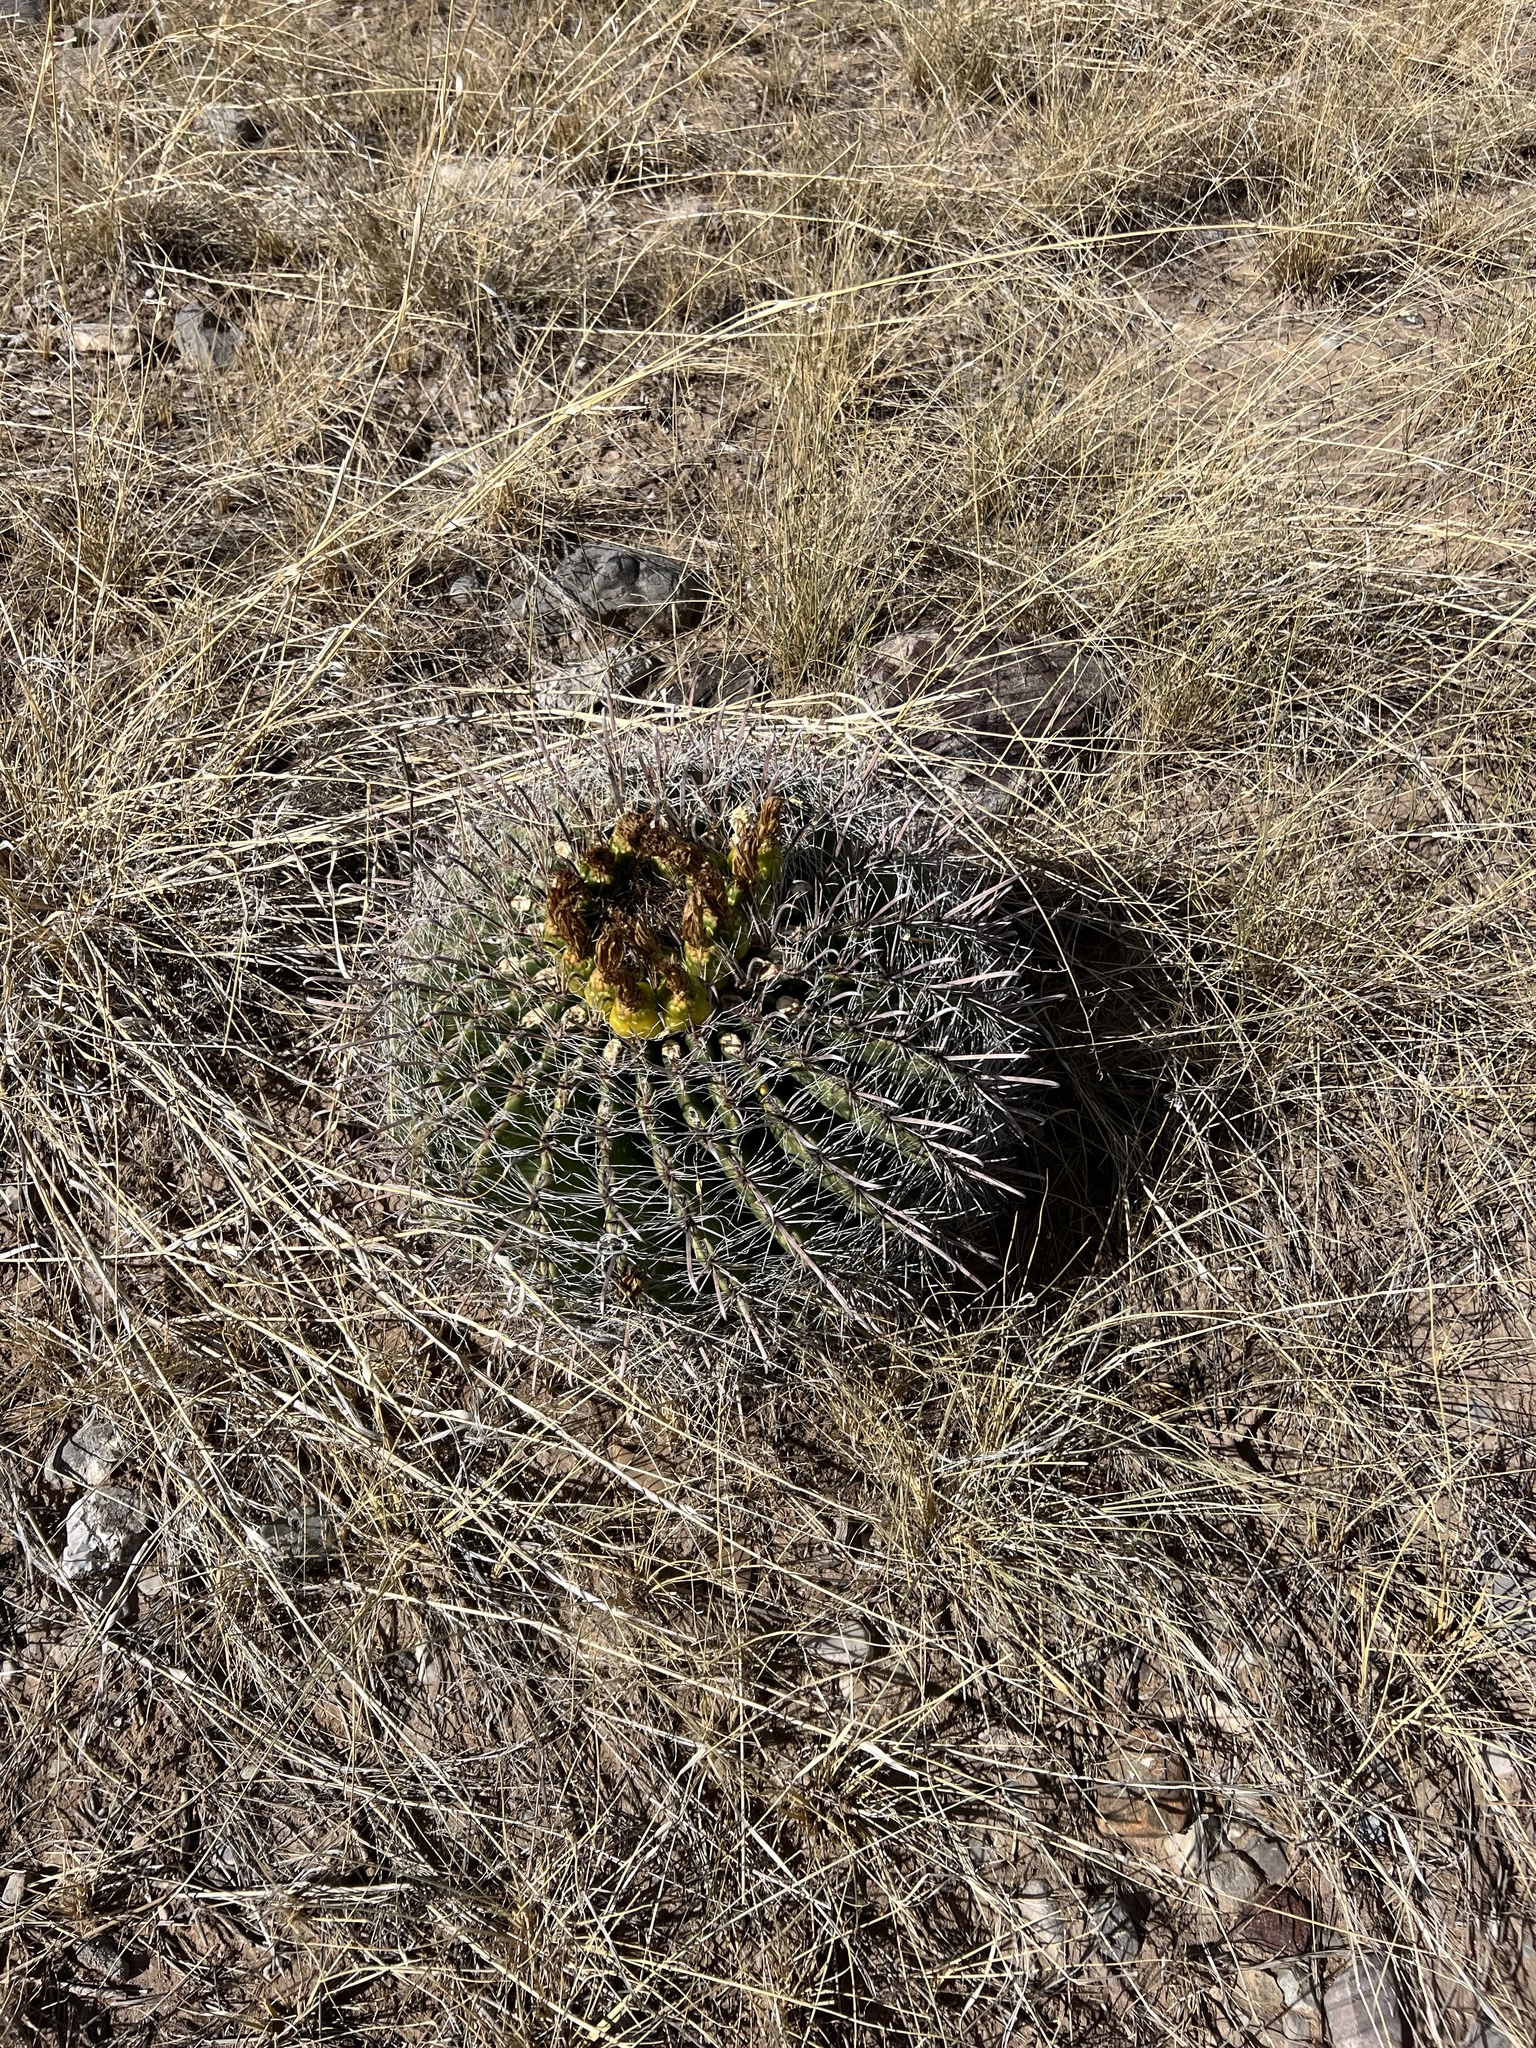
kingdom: Plantae
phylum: Tracheophyta
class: Magnoliopsida
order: Caryophyllales
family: Cactaceae
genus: Ferocactus
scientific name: Ferocactus wislizeni
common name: Candy barrel cactus
